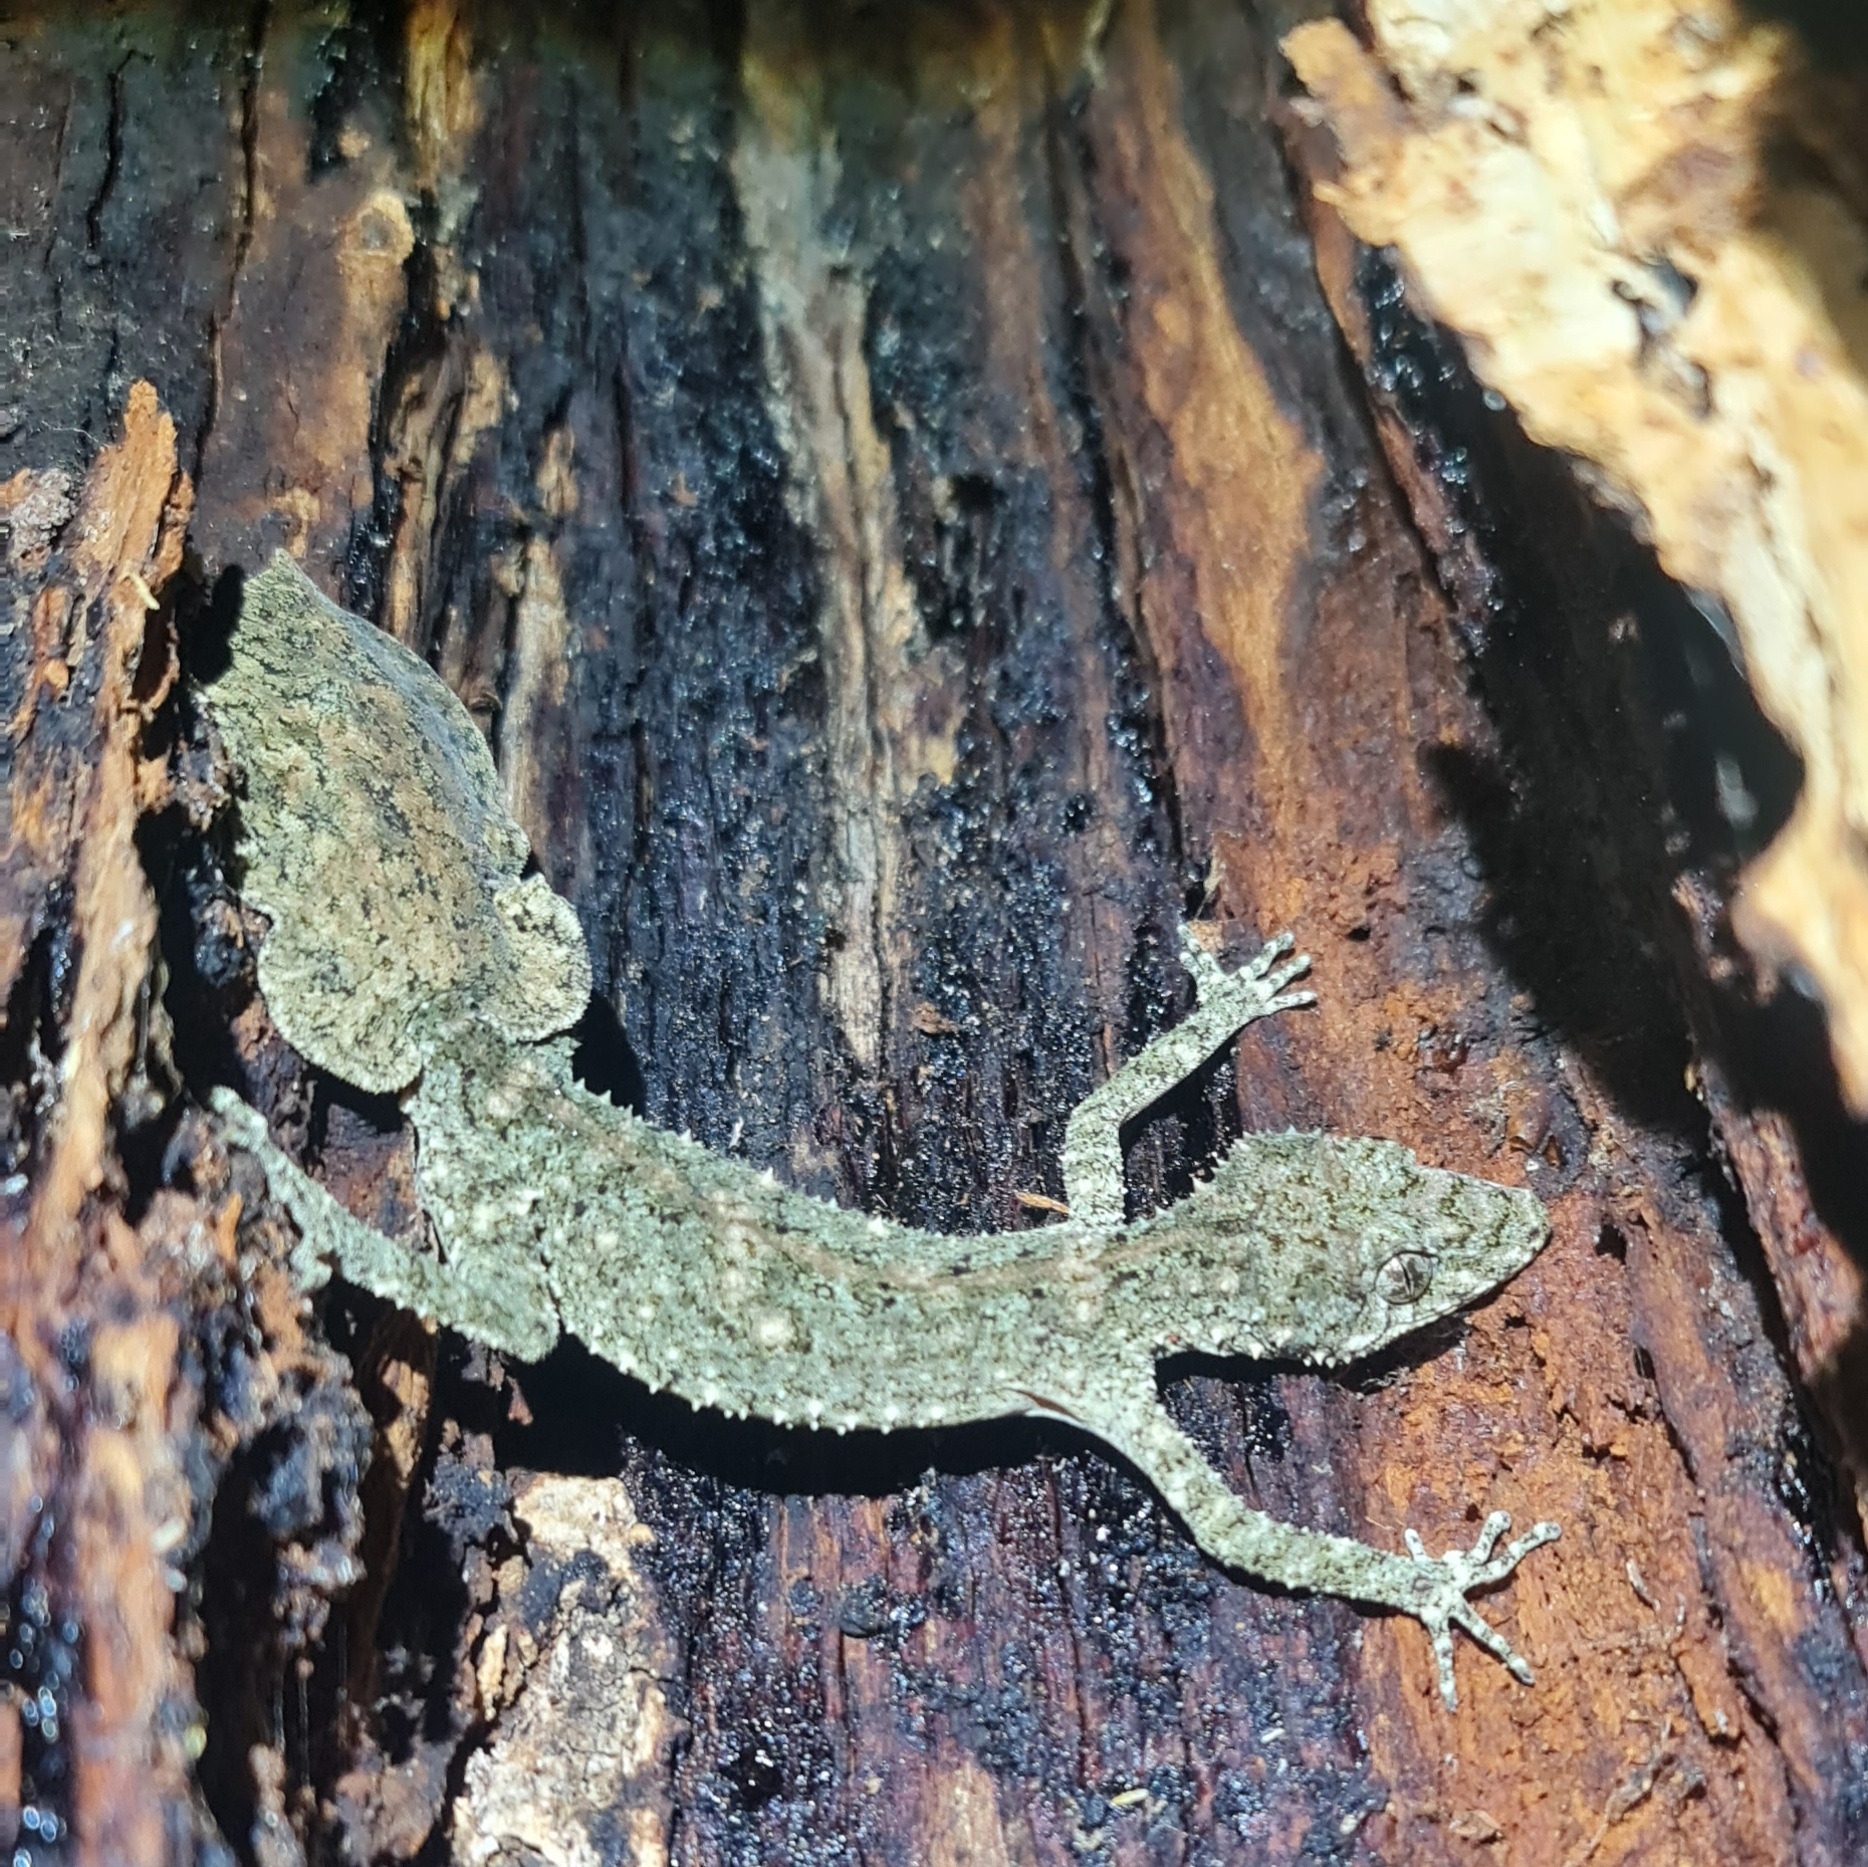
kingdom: Animalia
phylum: Chordata
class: Squamata
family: Carphodactylidae
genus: Saltuarius
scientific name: Saltuarius moritzi
